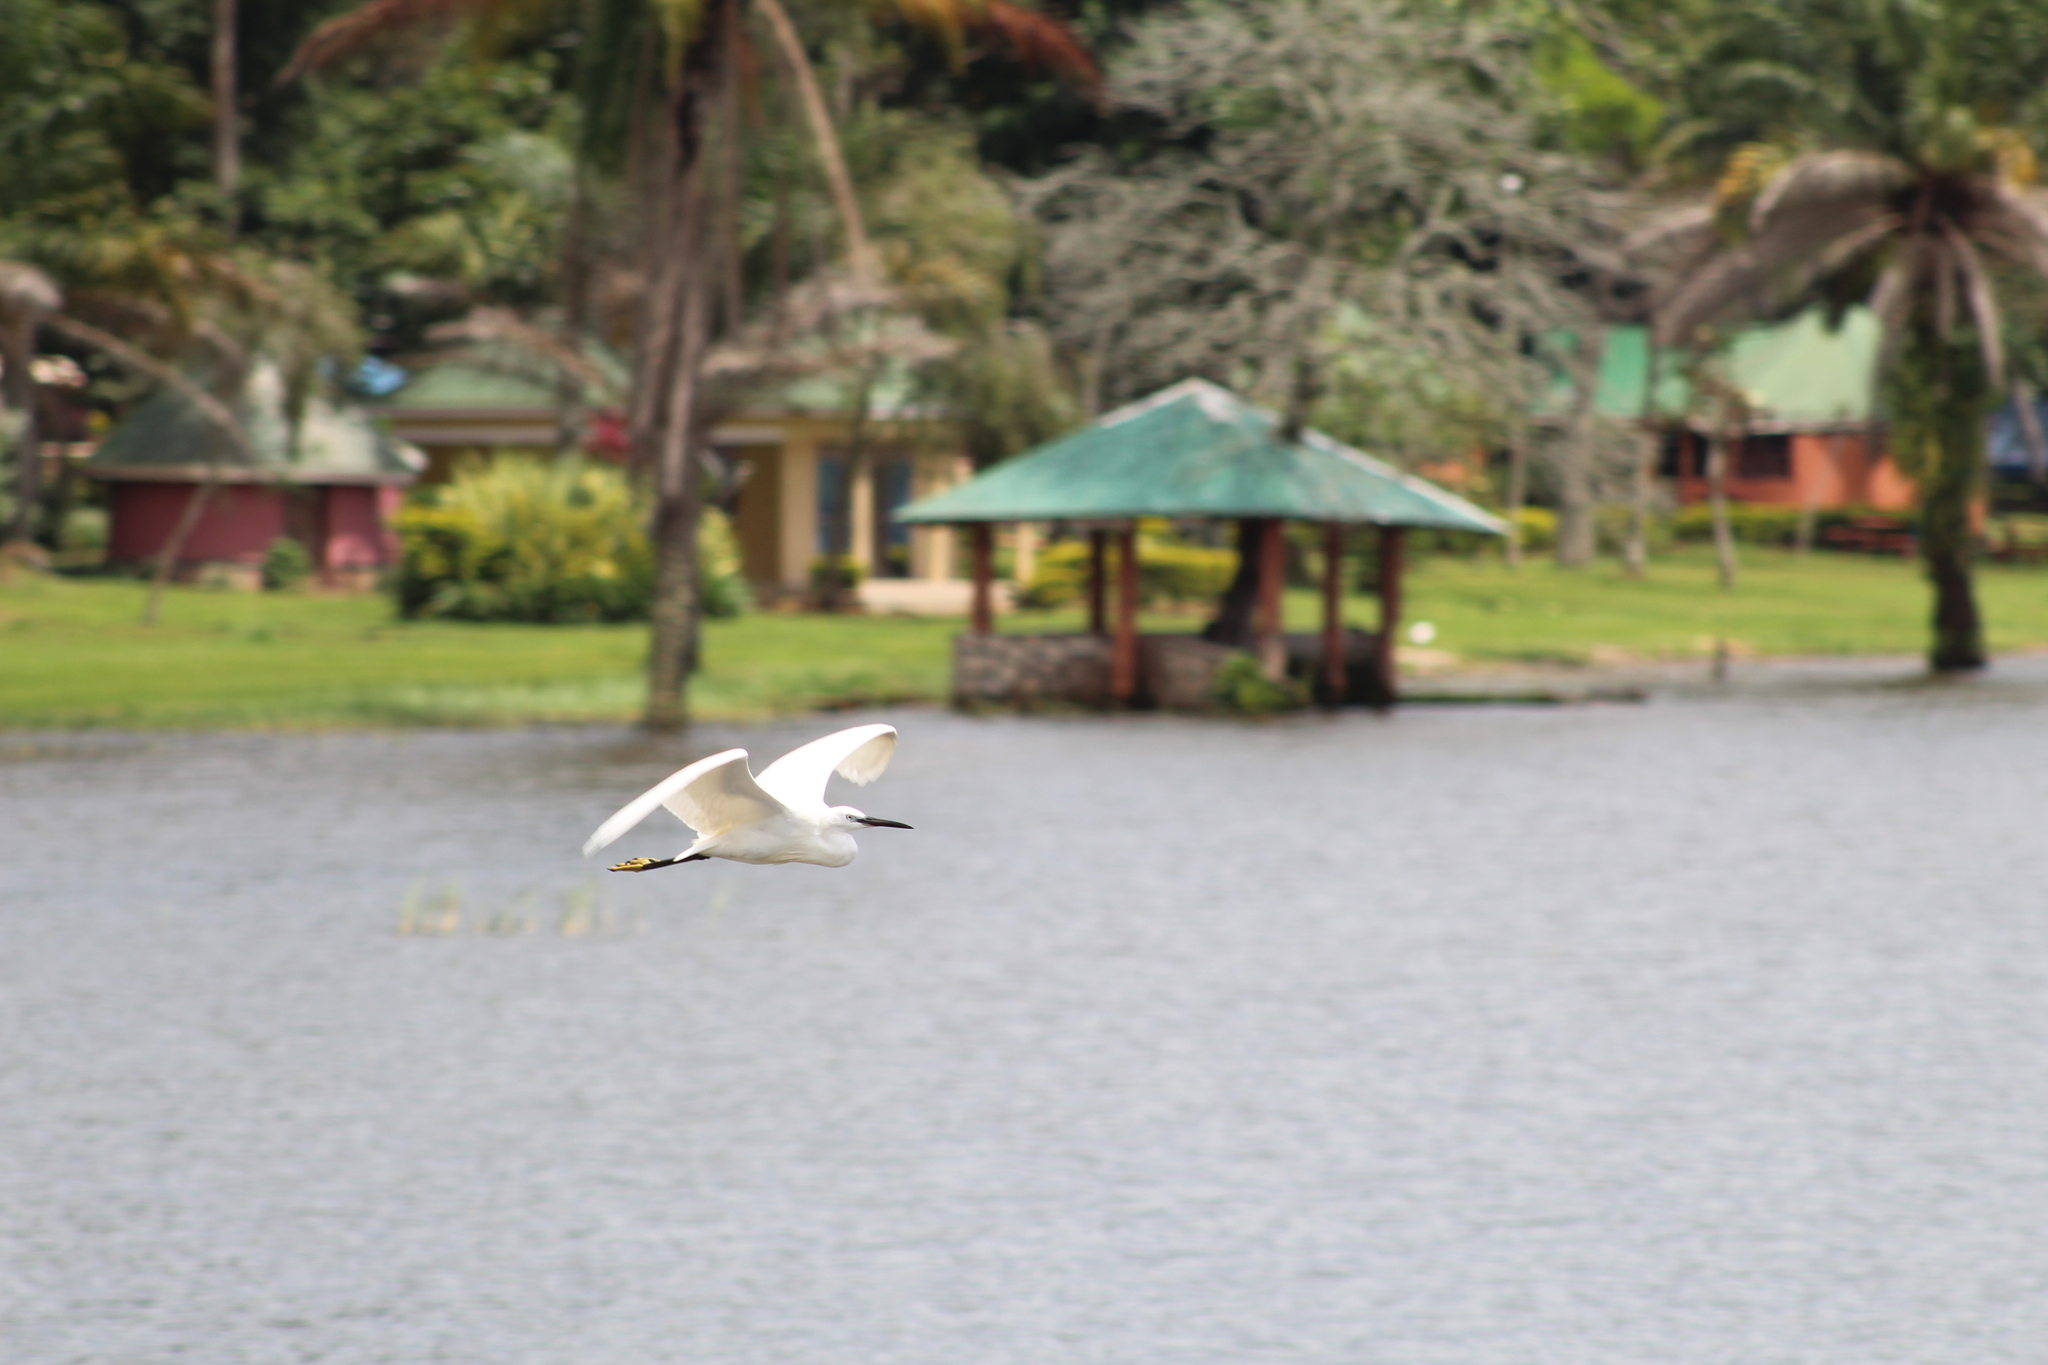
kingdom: Animalia
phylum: Chordata
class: Aves
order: Pelecaniformes
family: Ardeidae
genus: Egretta
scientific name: Egretta garzetta
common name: Little egret
